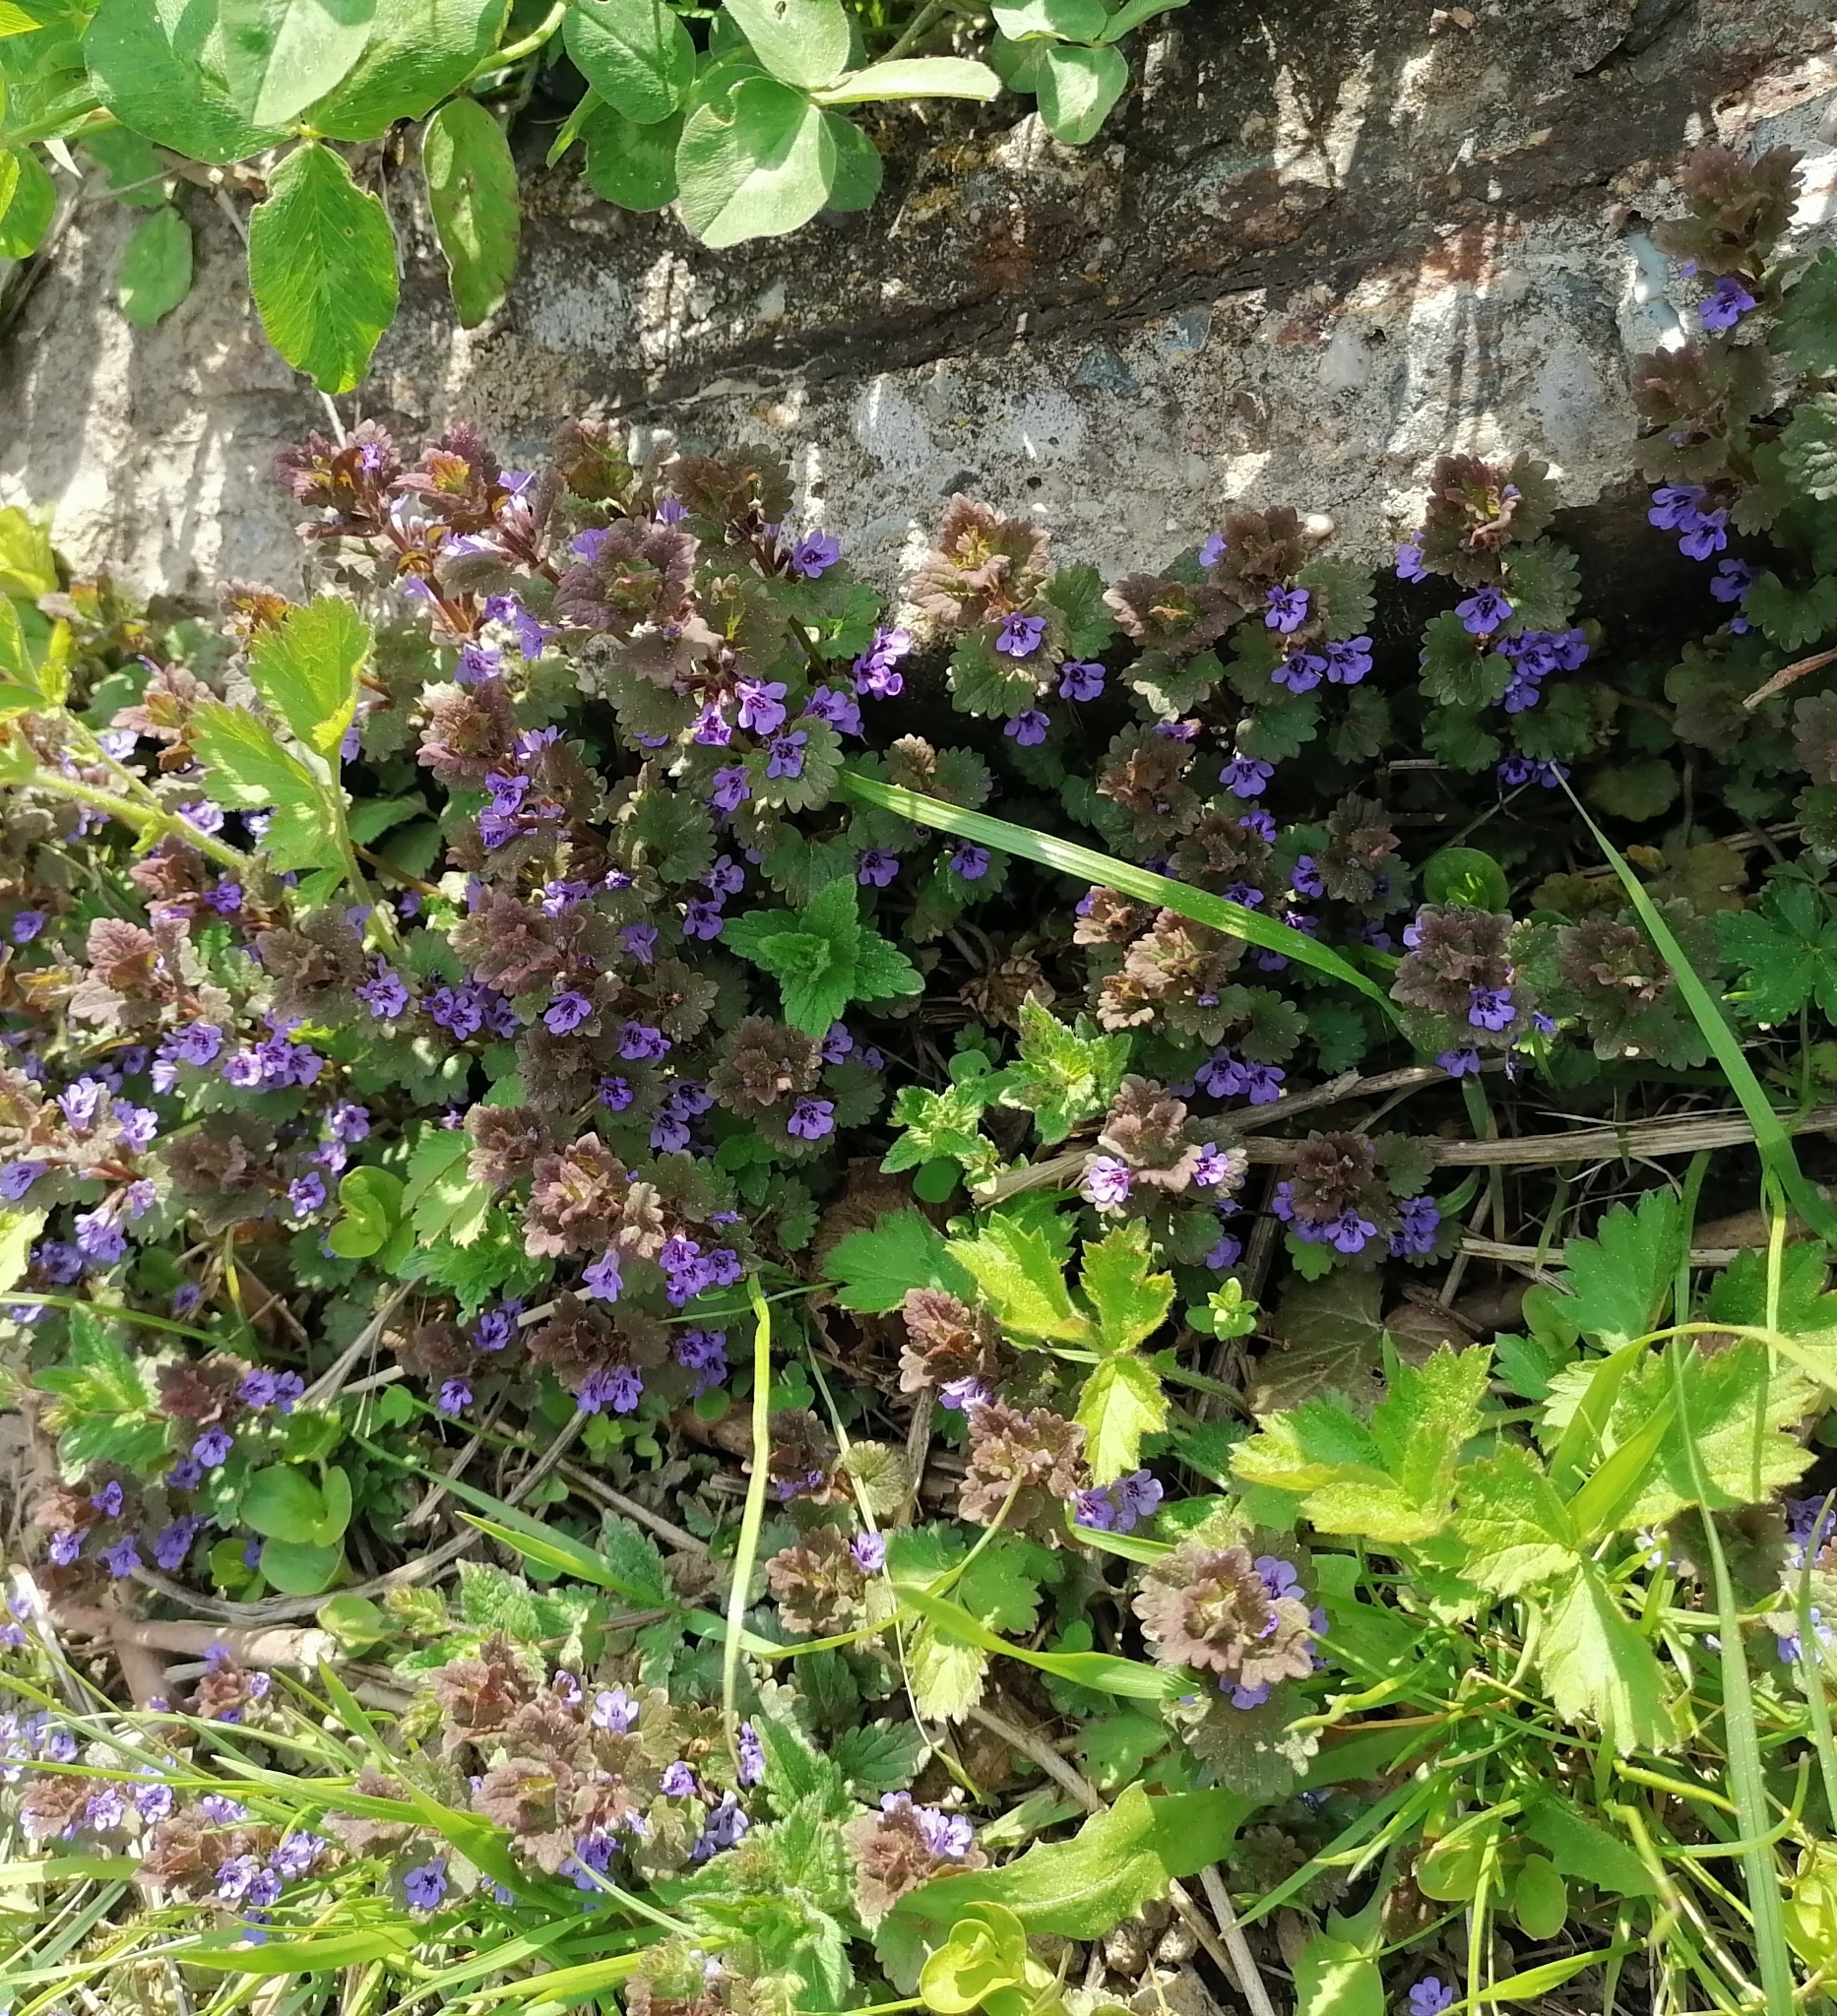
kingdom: Plantae
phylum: Tracheophyta
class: Magnoliopsida
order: Lamiales
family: Lamiaceae
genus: Glechoma
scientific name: Glechoma hederacea
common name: Ground ivy
